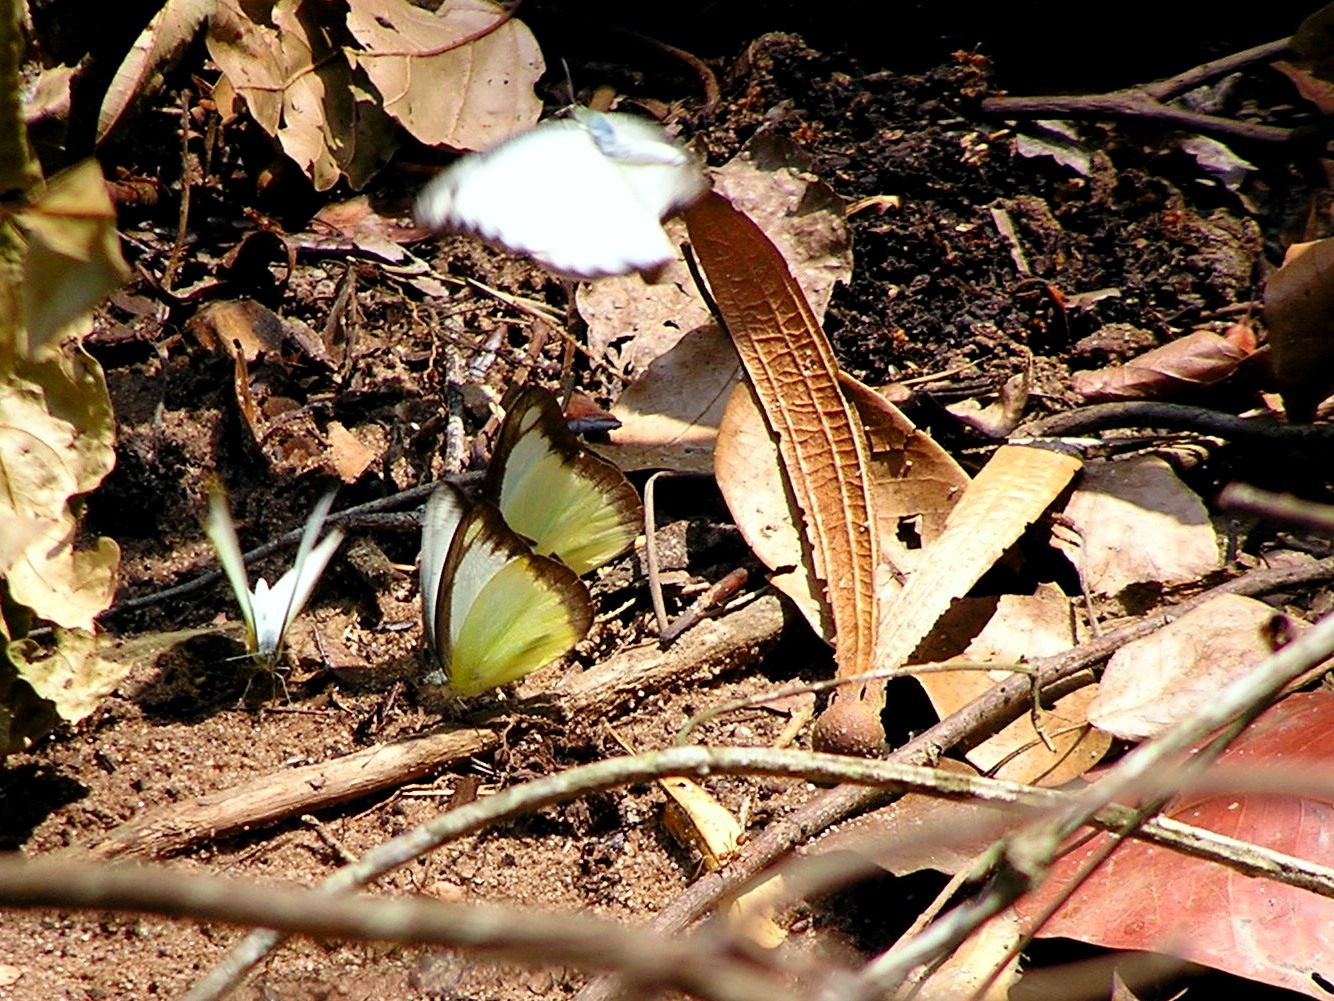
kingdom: Animalia
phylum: Arthropoda
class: Insecta
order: Lepidoptera
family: Pieridae
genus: Appias
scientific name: Appias lyncida
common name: Chocolate albatross
